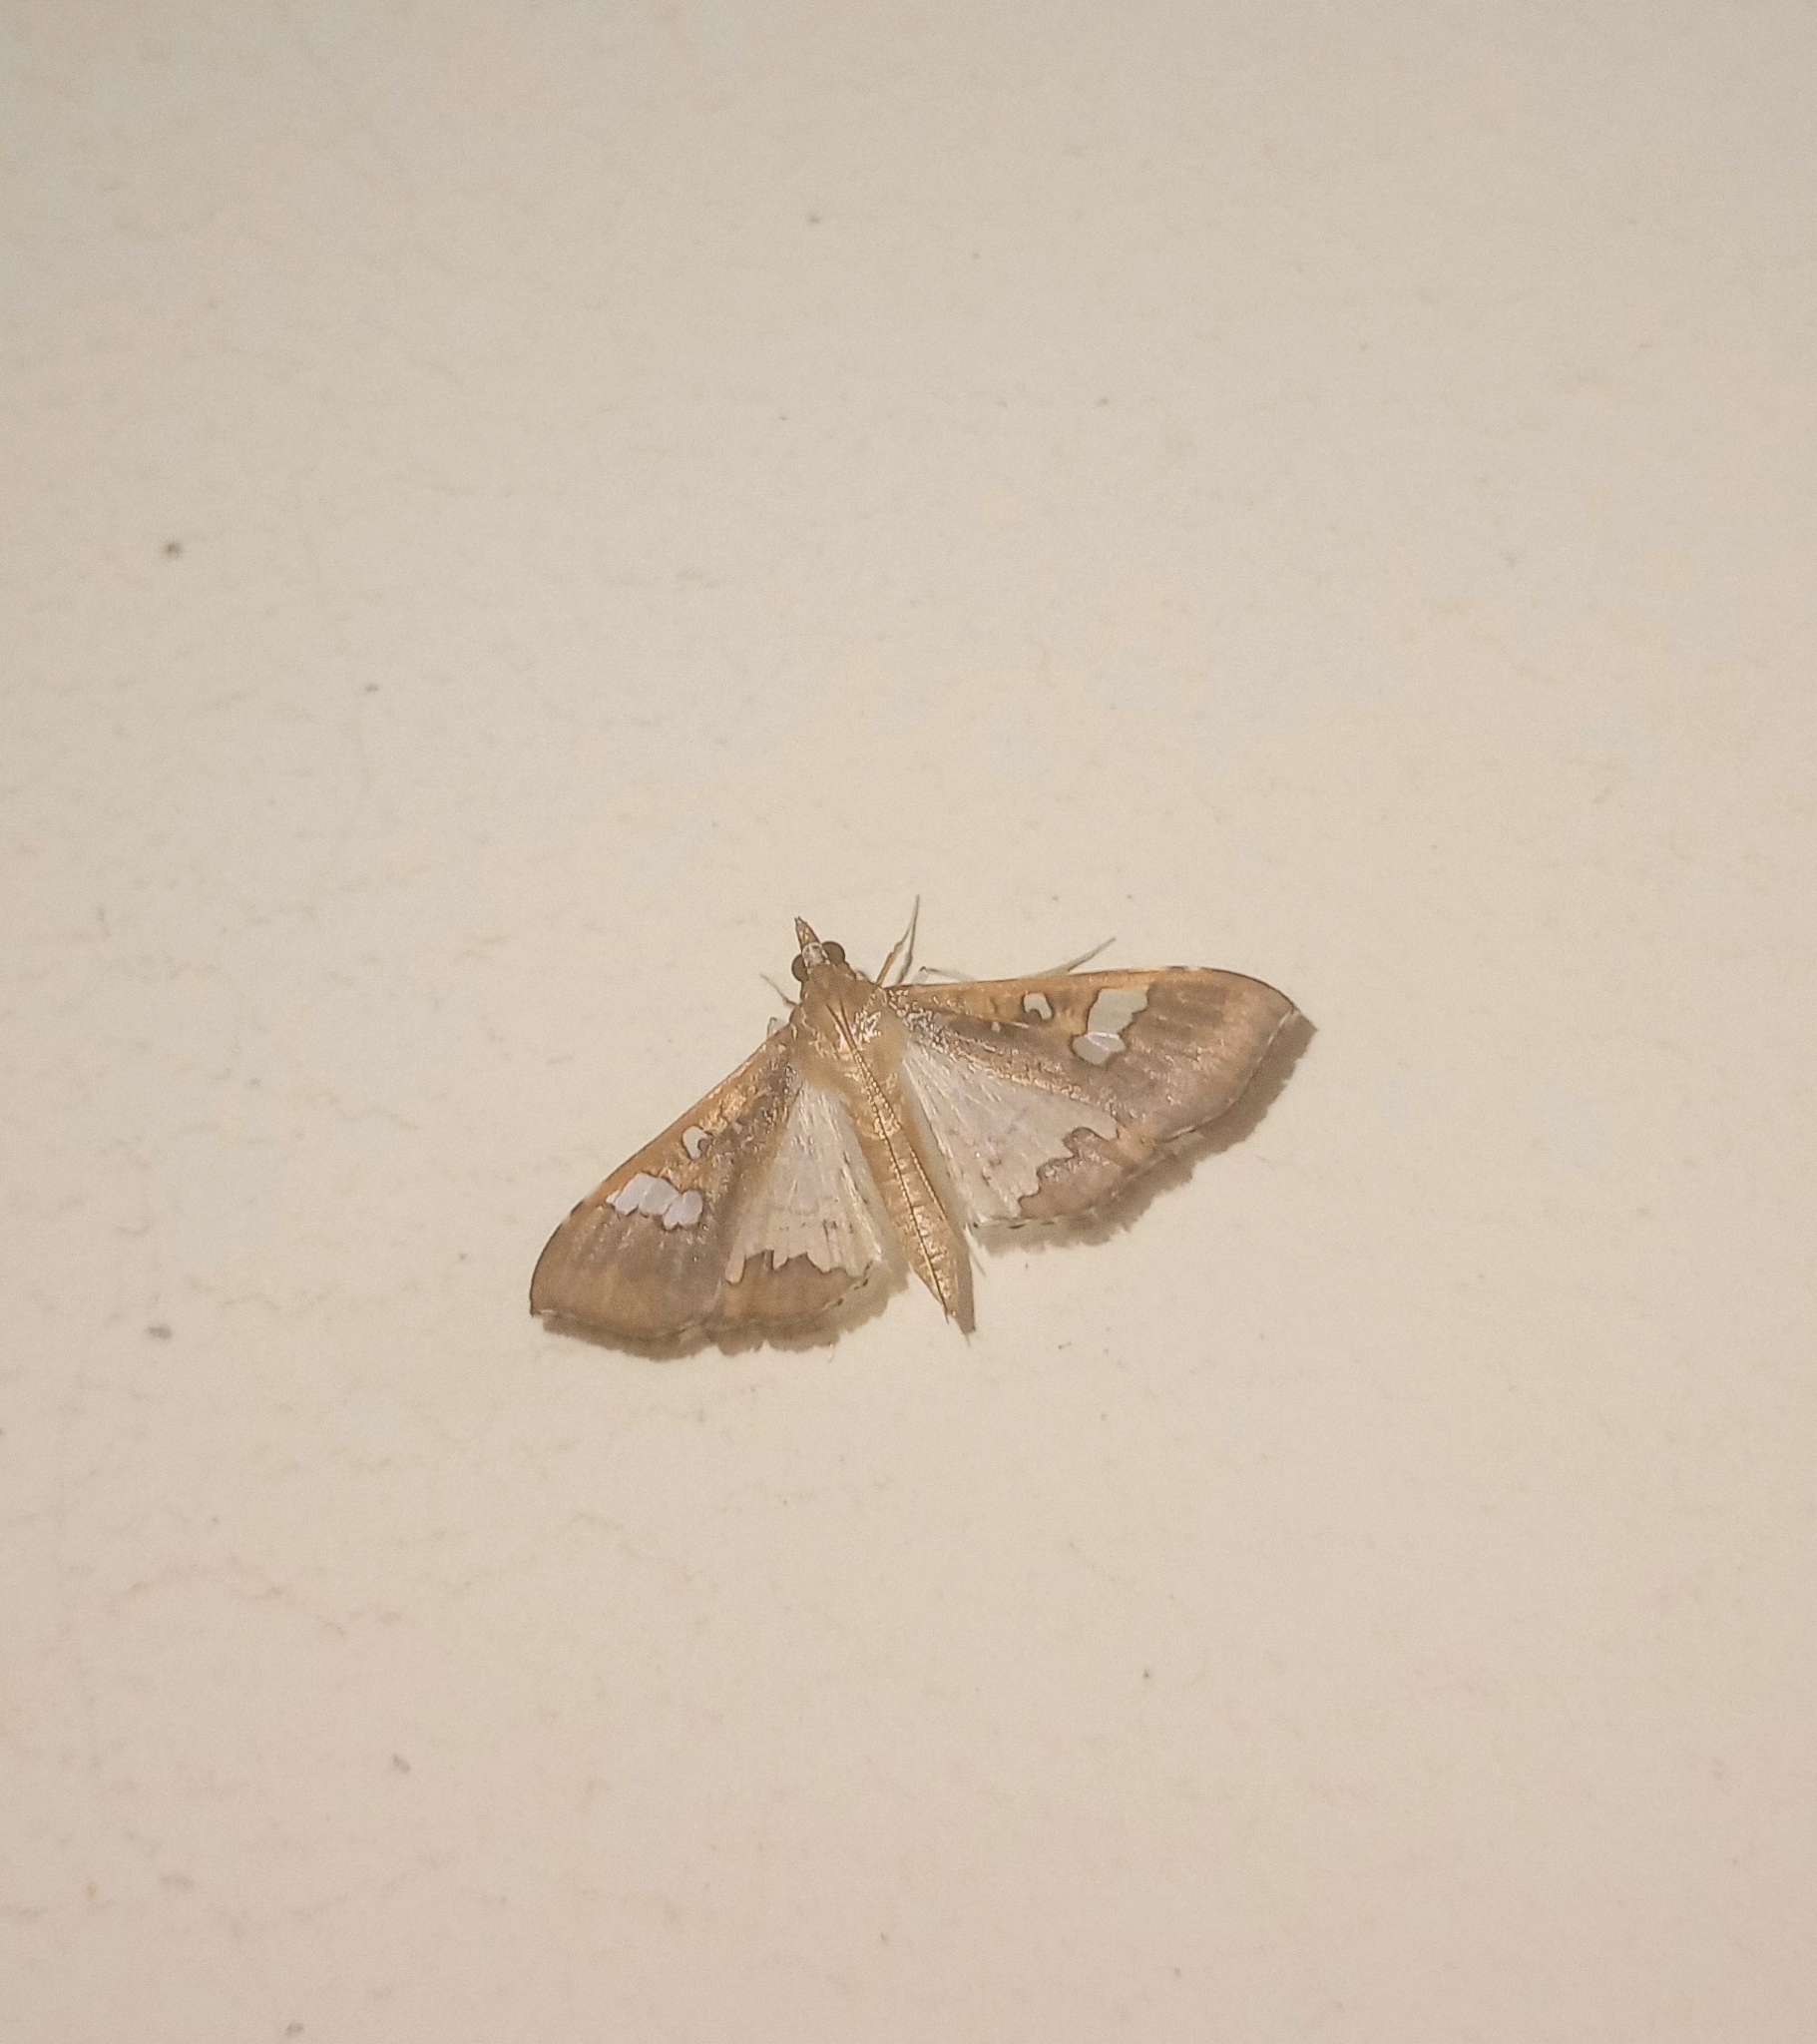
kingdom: Animalia
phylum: Arthropoda
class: Insecta
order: Lepidoptera
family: Crambidae
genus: Maruca
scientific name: Maruca vitrata
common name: Maruca pod borer
